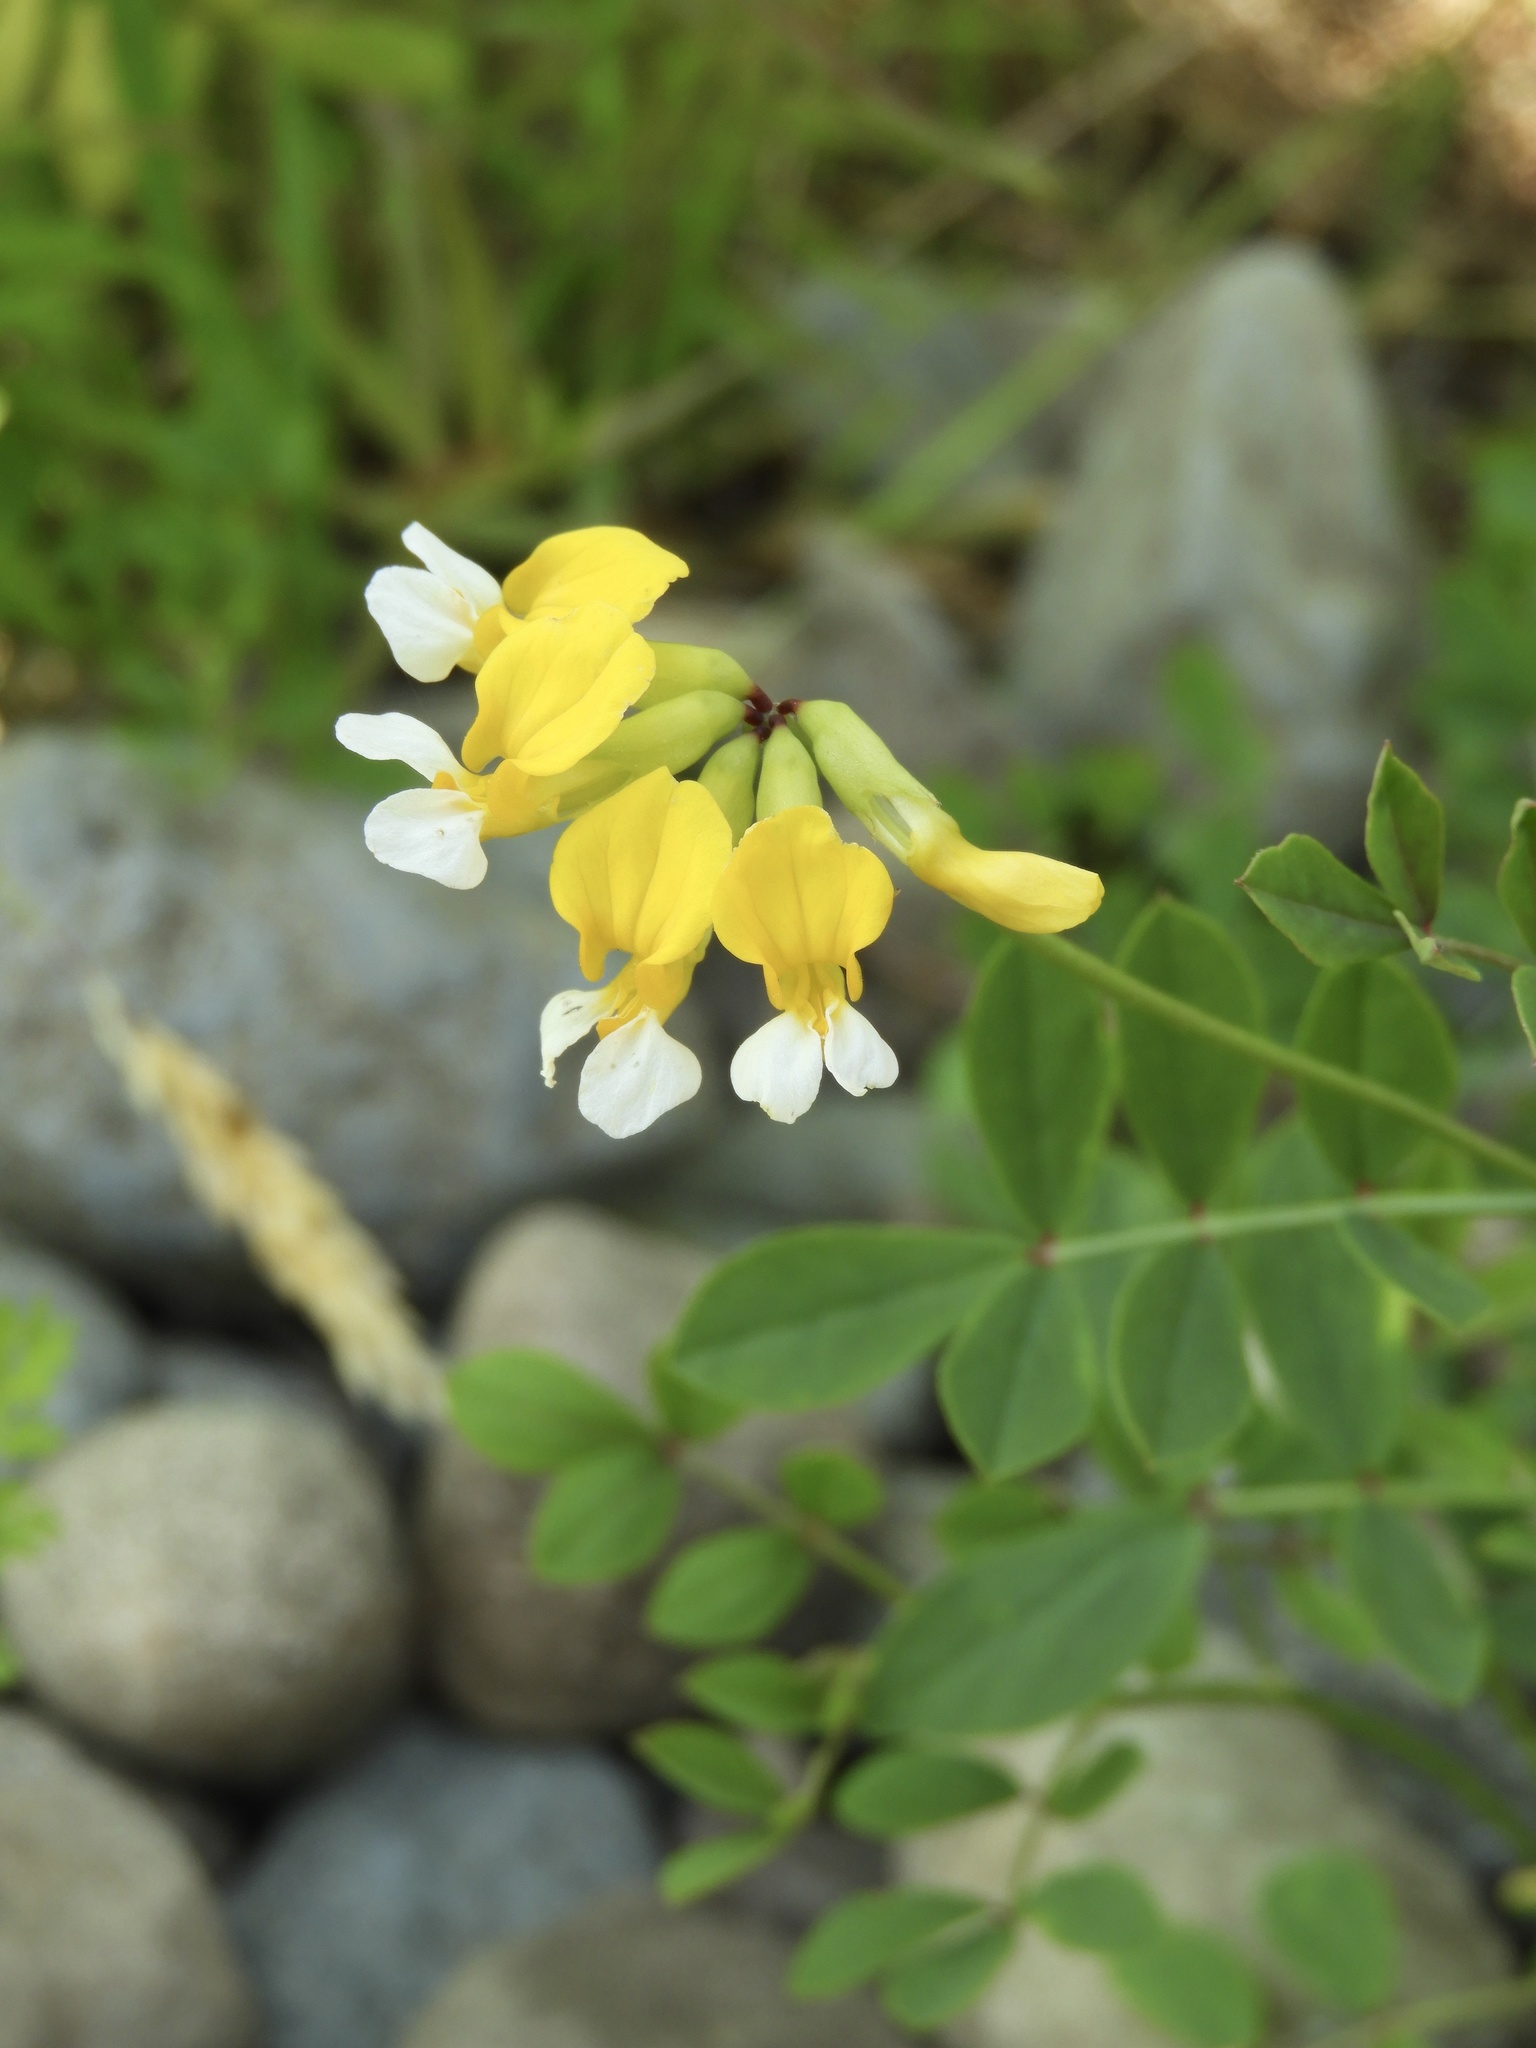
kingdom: Plantae
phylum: Tracheophyta
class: Magnoliopsida
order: Fabales
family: Fabaceae
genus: Hosackia
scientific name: Hosackia pinnata
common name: Bog bird's-foot trefoil
